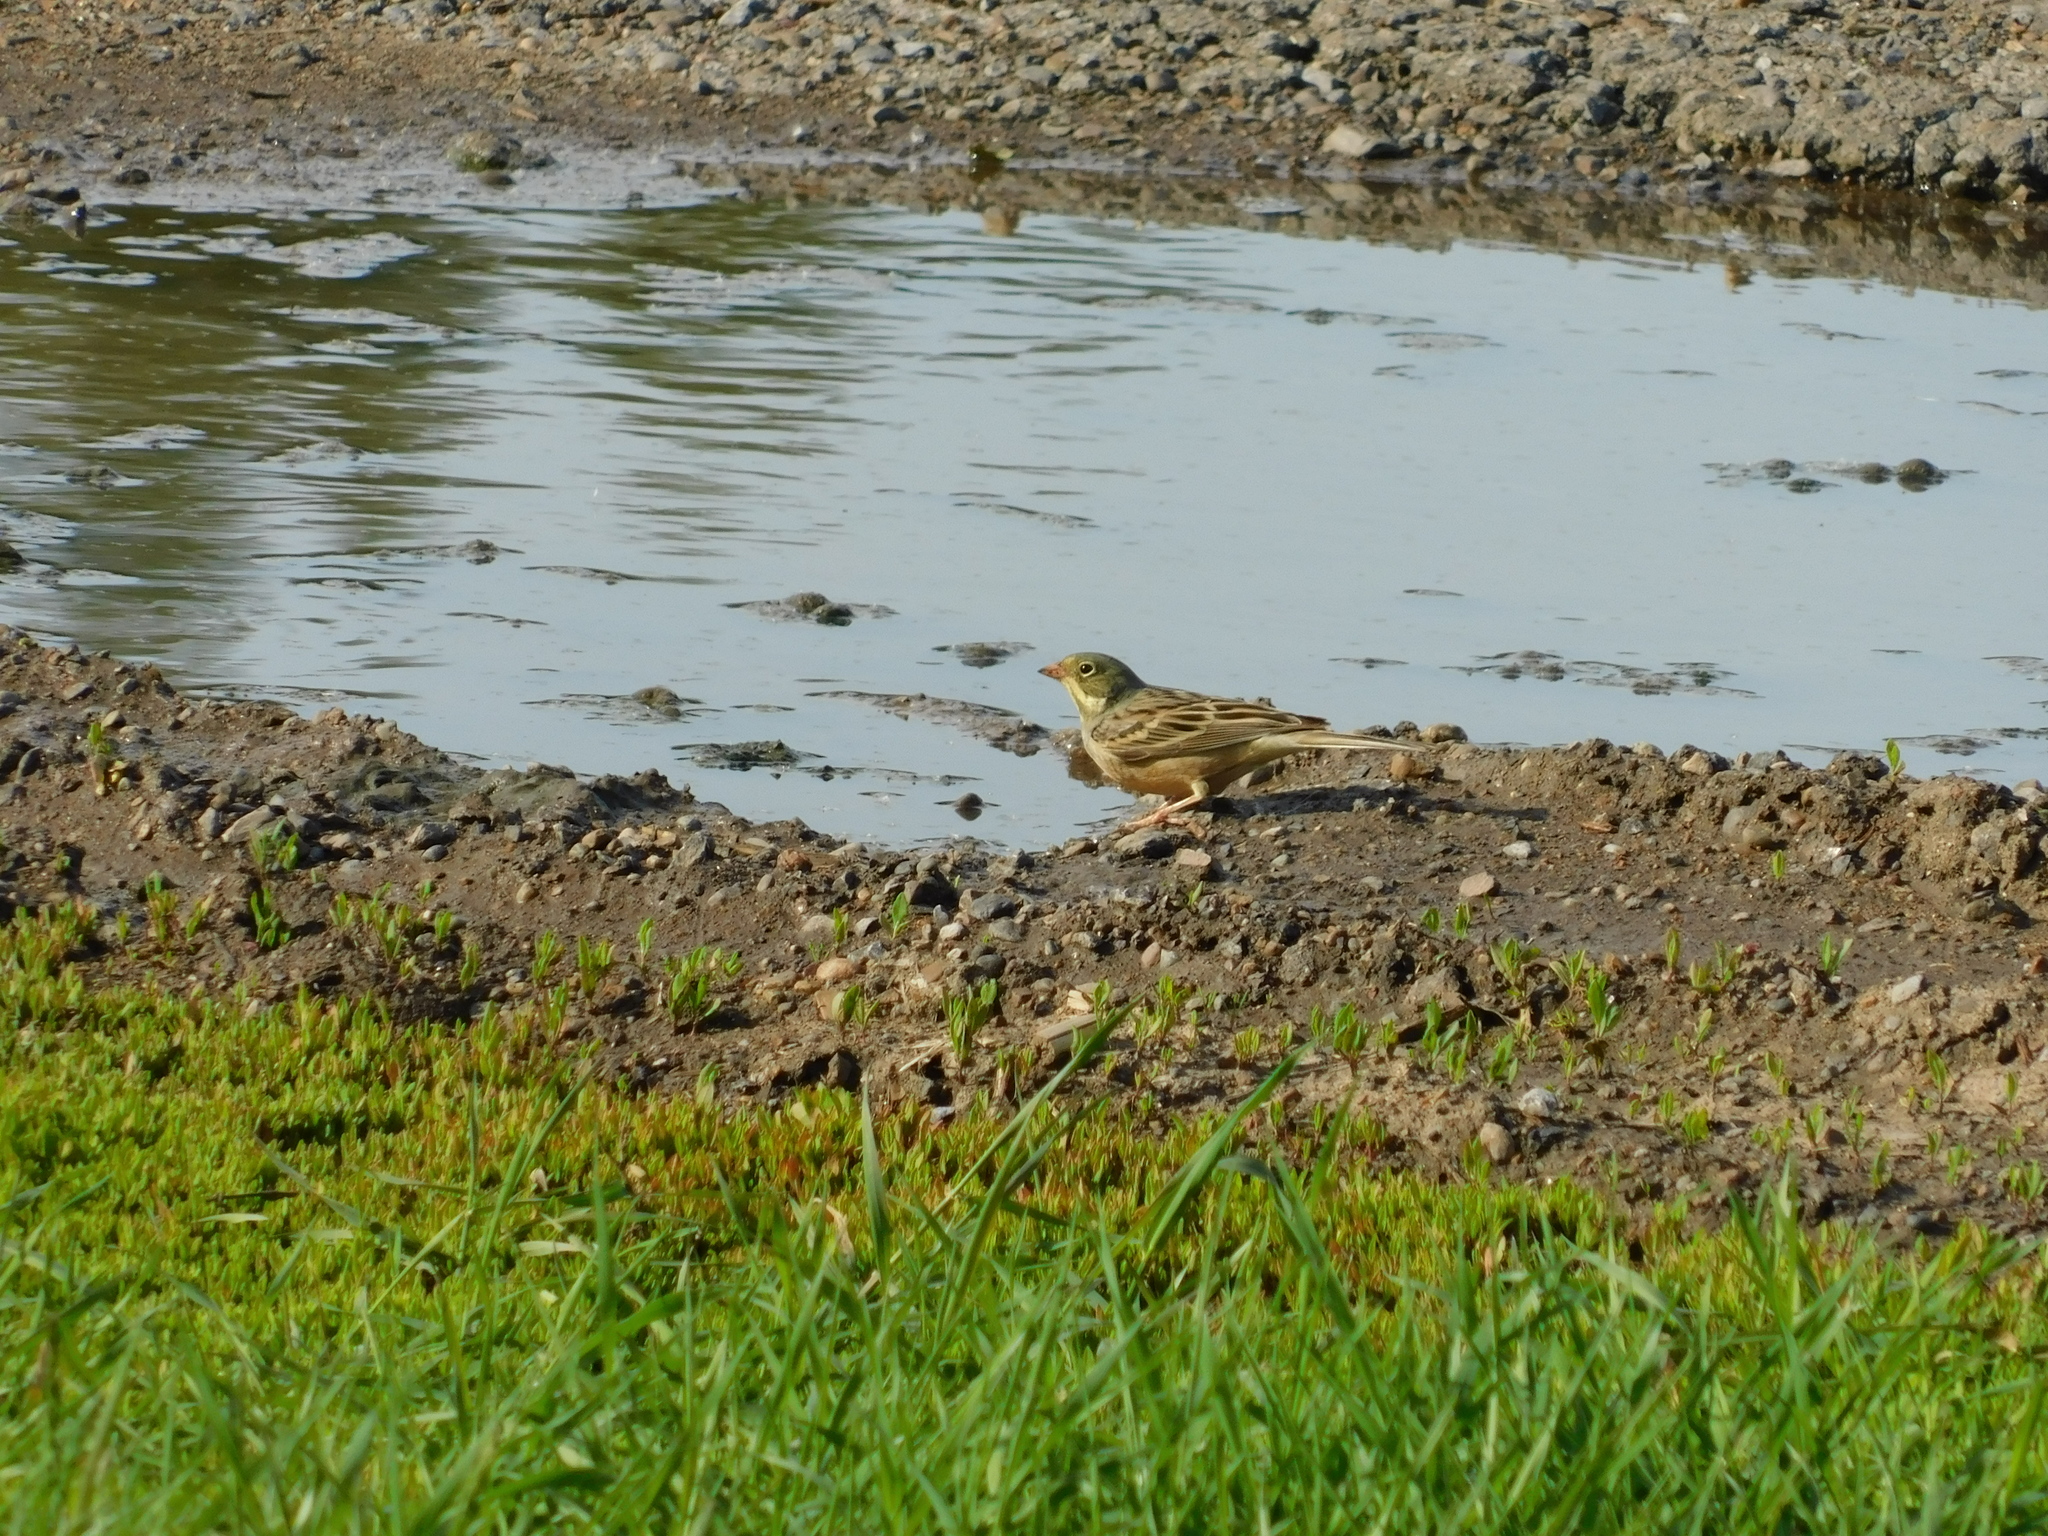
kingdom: Animalia
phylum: Chordata
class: Aves
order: Passeriformes
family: Emberizidae
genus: Emberiza
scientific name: Emberiza hortulana
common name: Ortolan bunting
